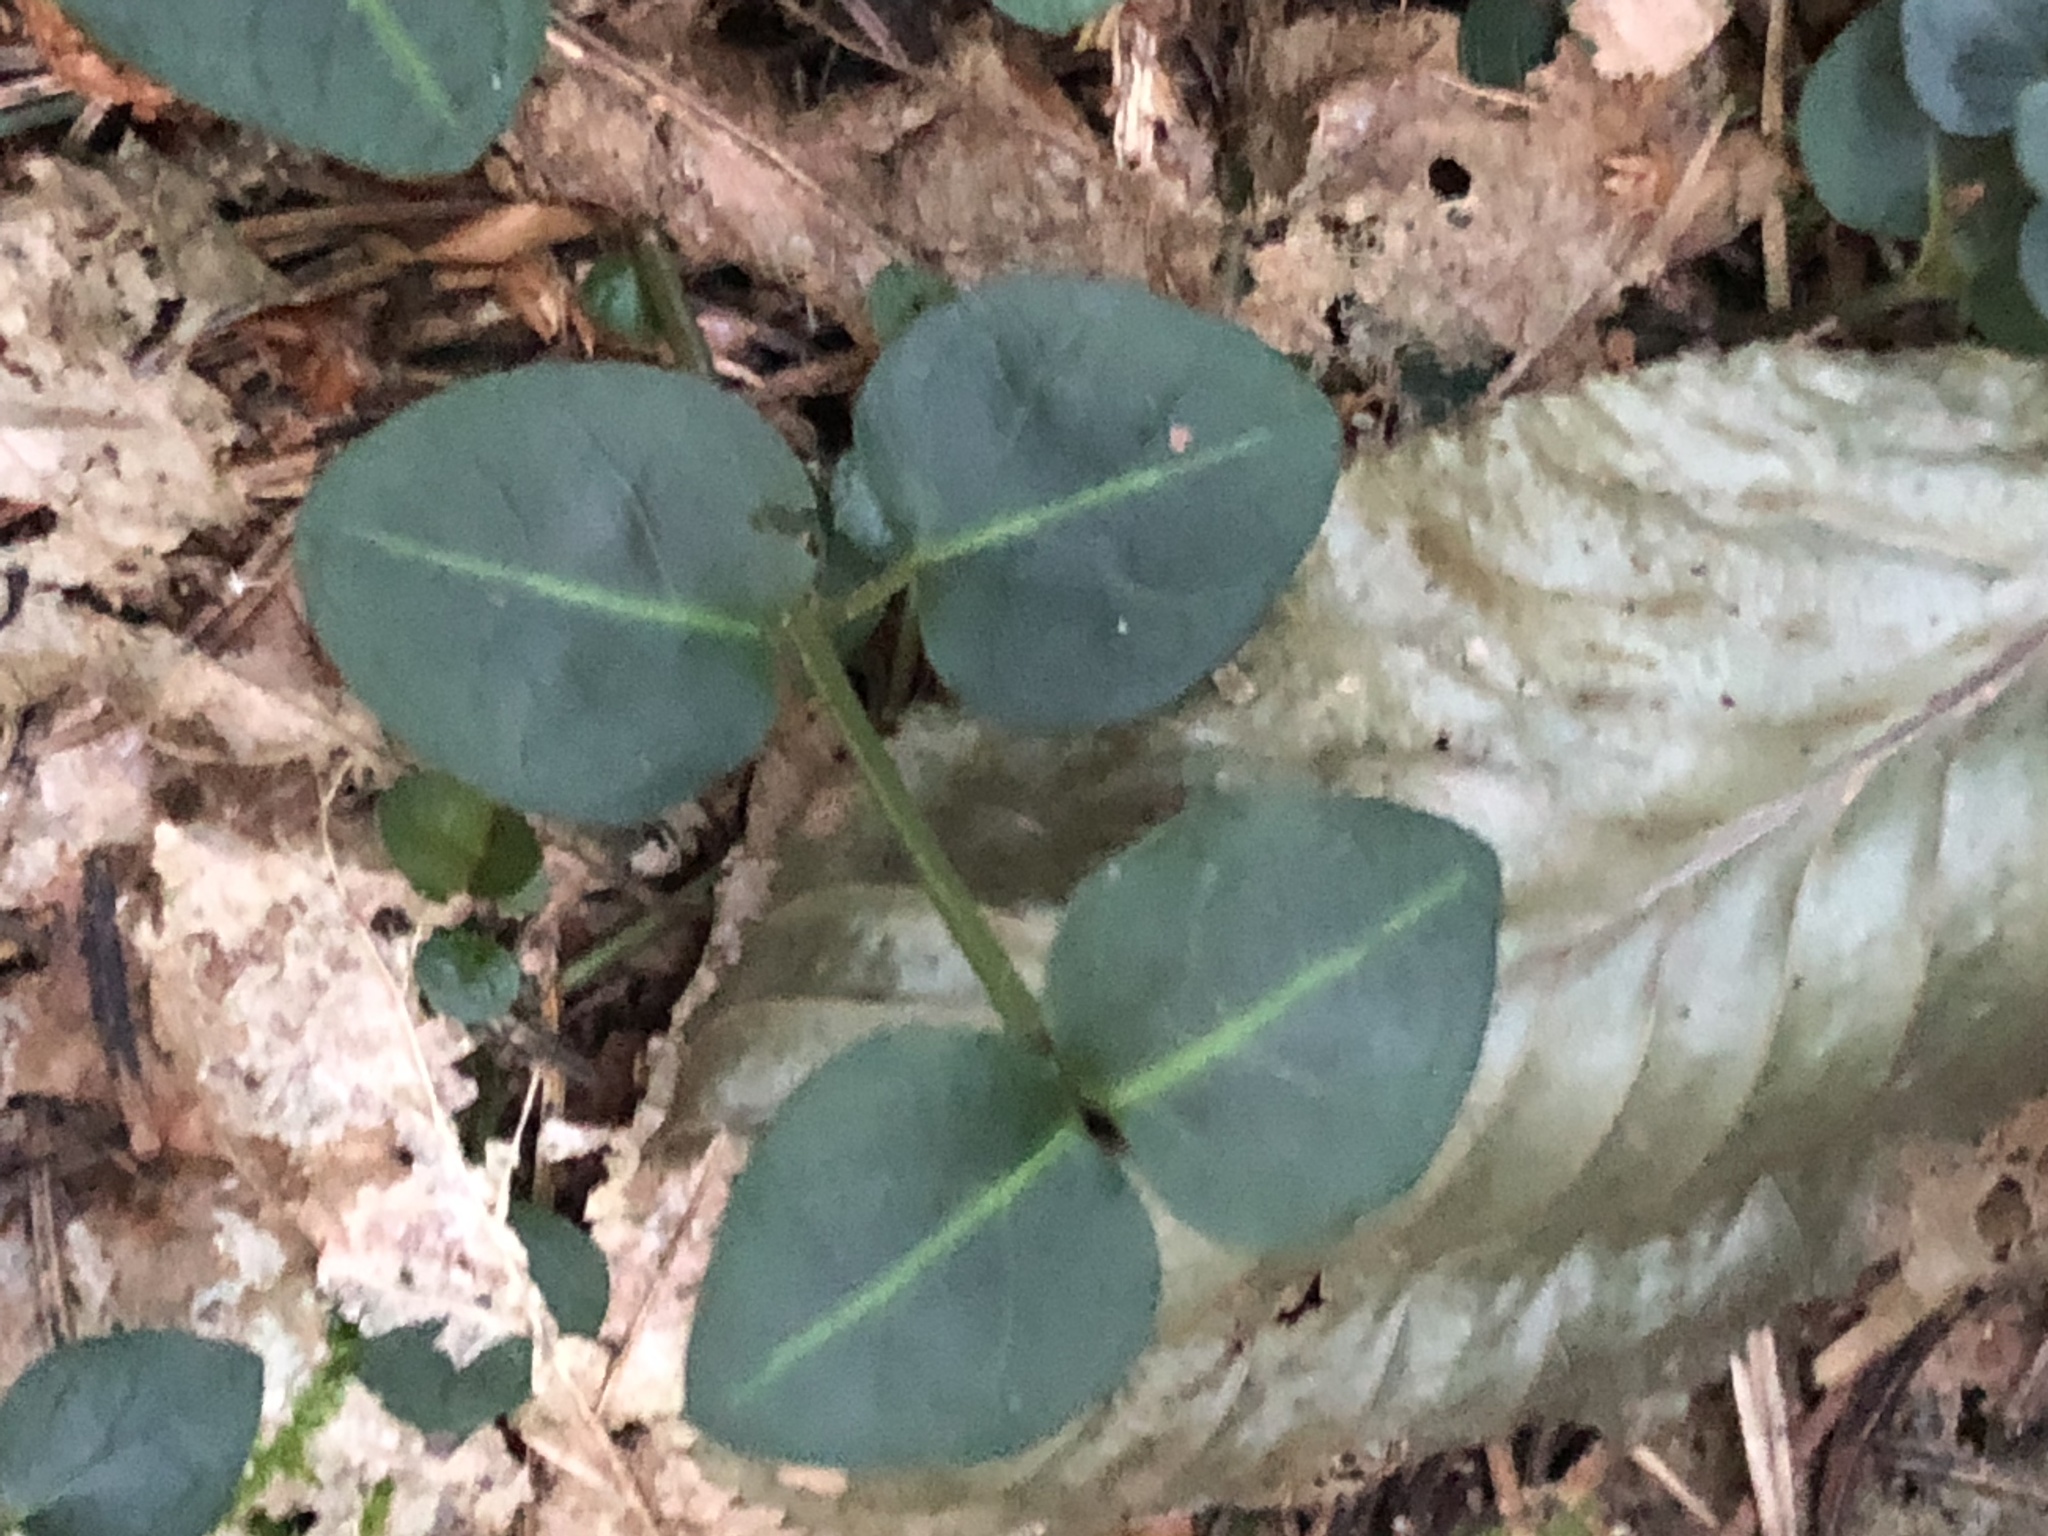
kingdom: Plantae
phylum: Tracheophyta
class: Magnoliopsida
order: Gentianales
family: Rubiaceae
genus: Mitchella
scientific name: Mitchella repens
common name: Partridge-berry
